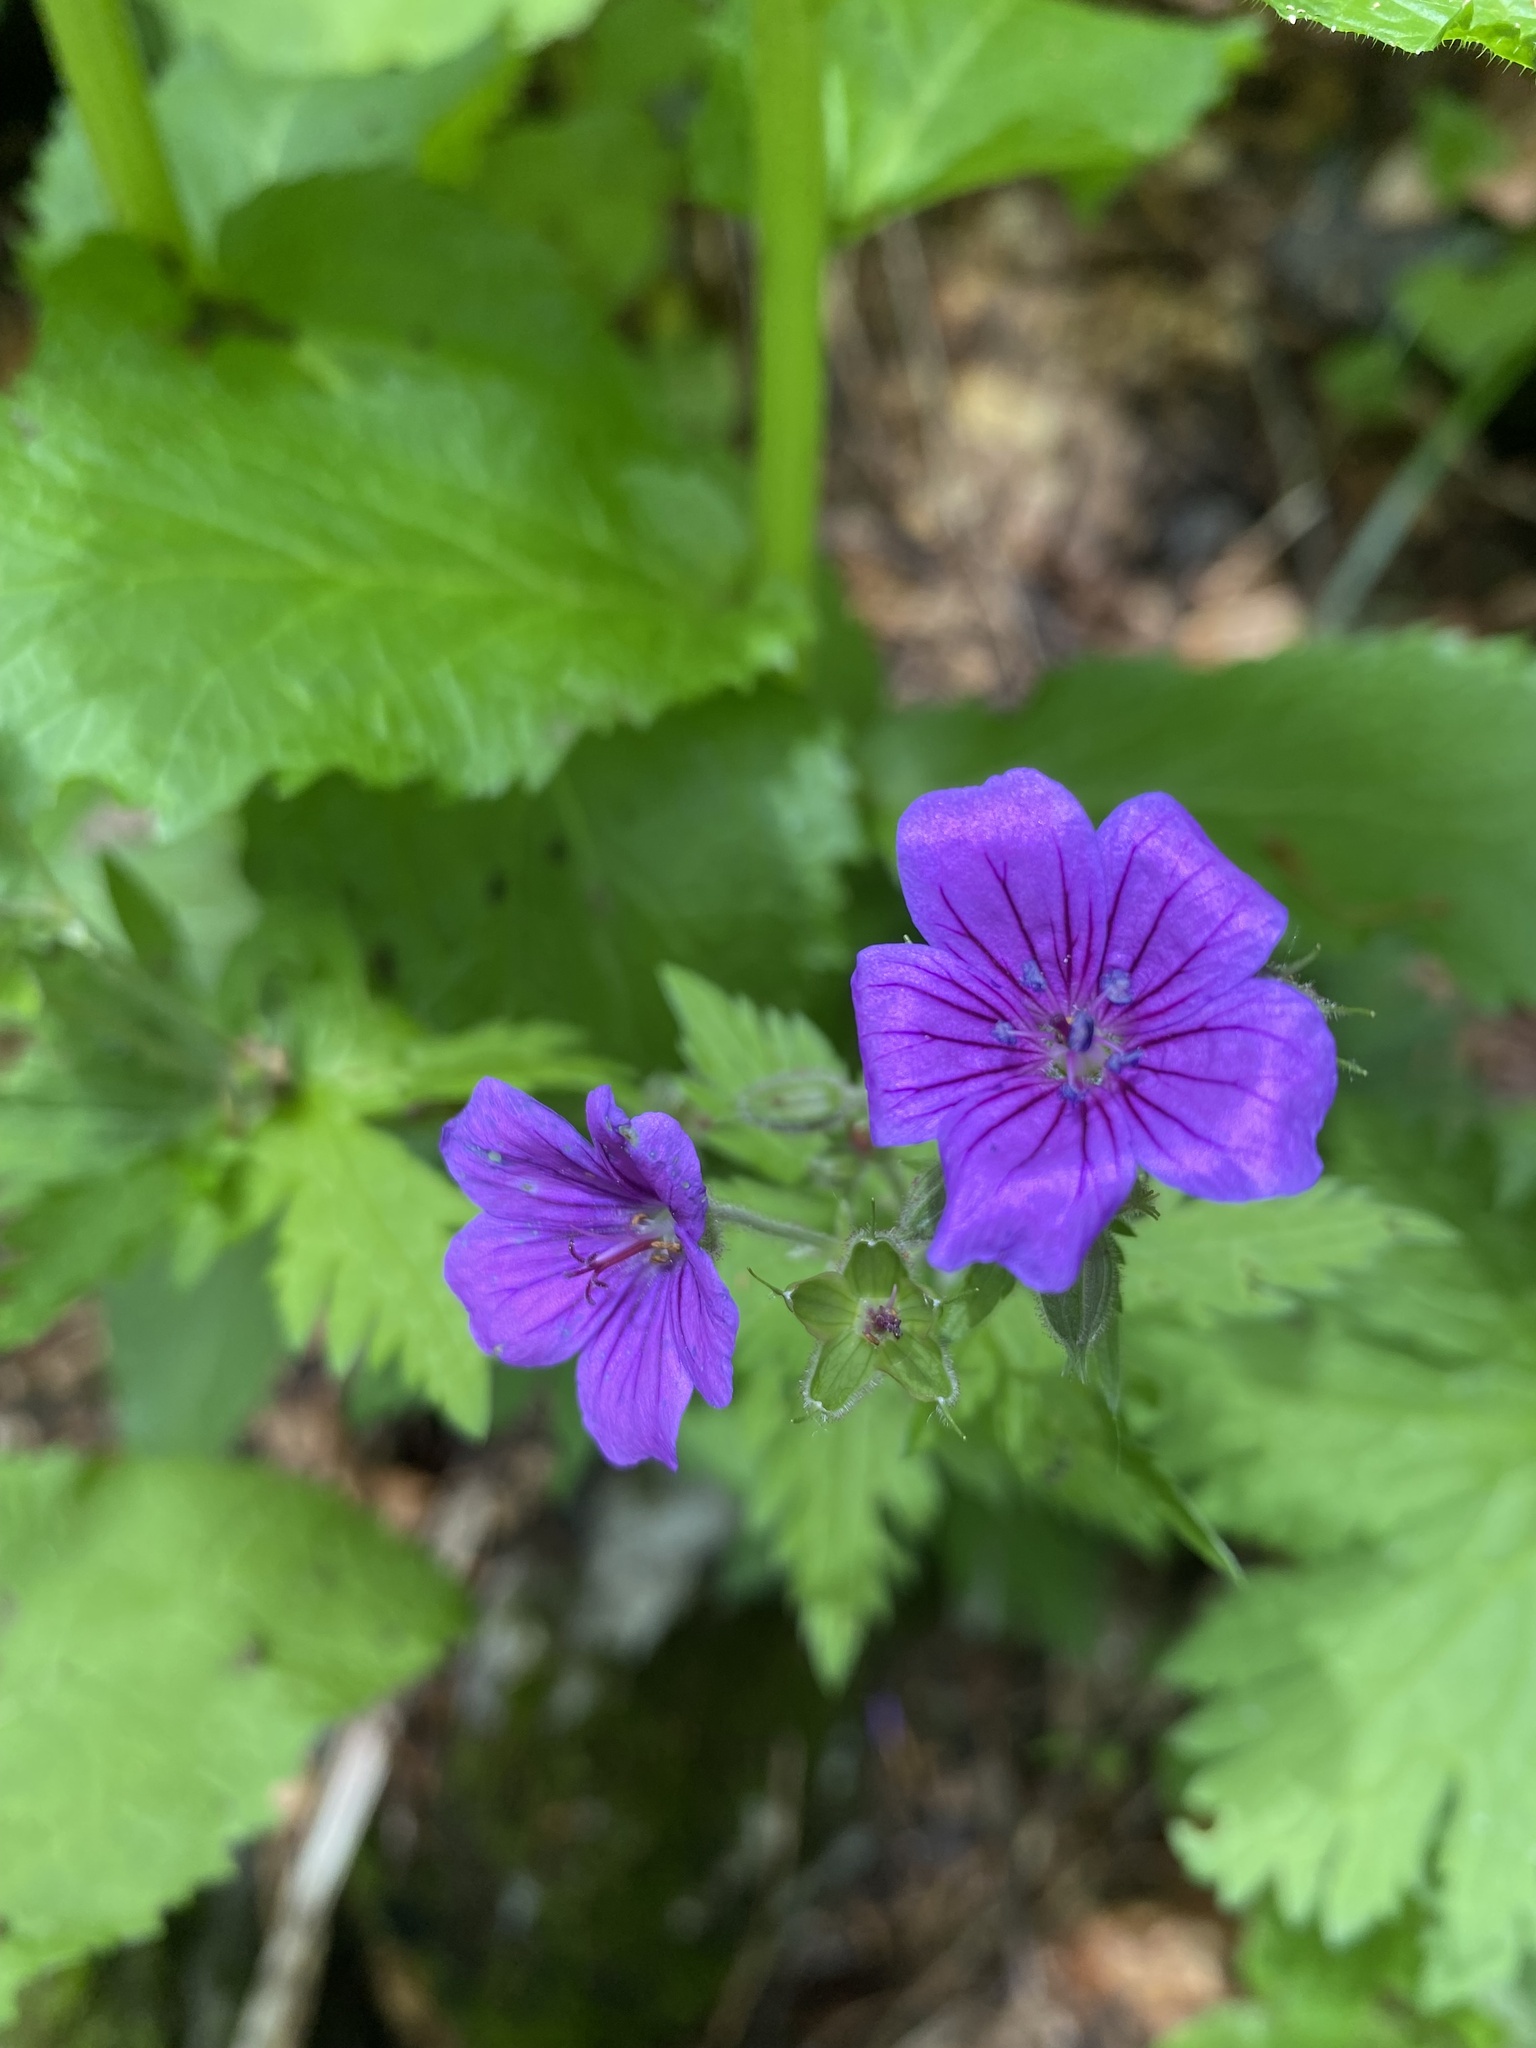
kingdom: Plantae
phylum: Tracheophyta
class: Magnoliopsida
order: Geraniales
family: Geraniaceae
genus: Geranium
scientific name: Geranium sylvaticum
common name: Wood crane's-bill
